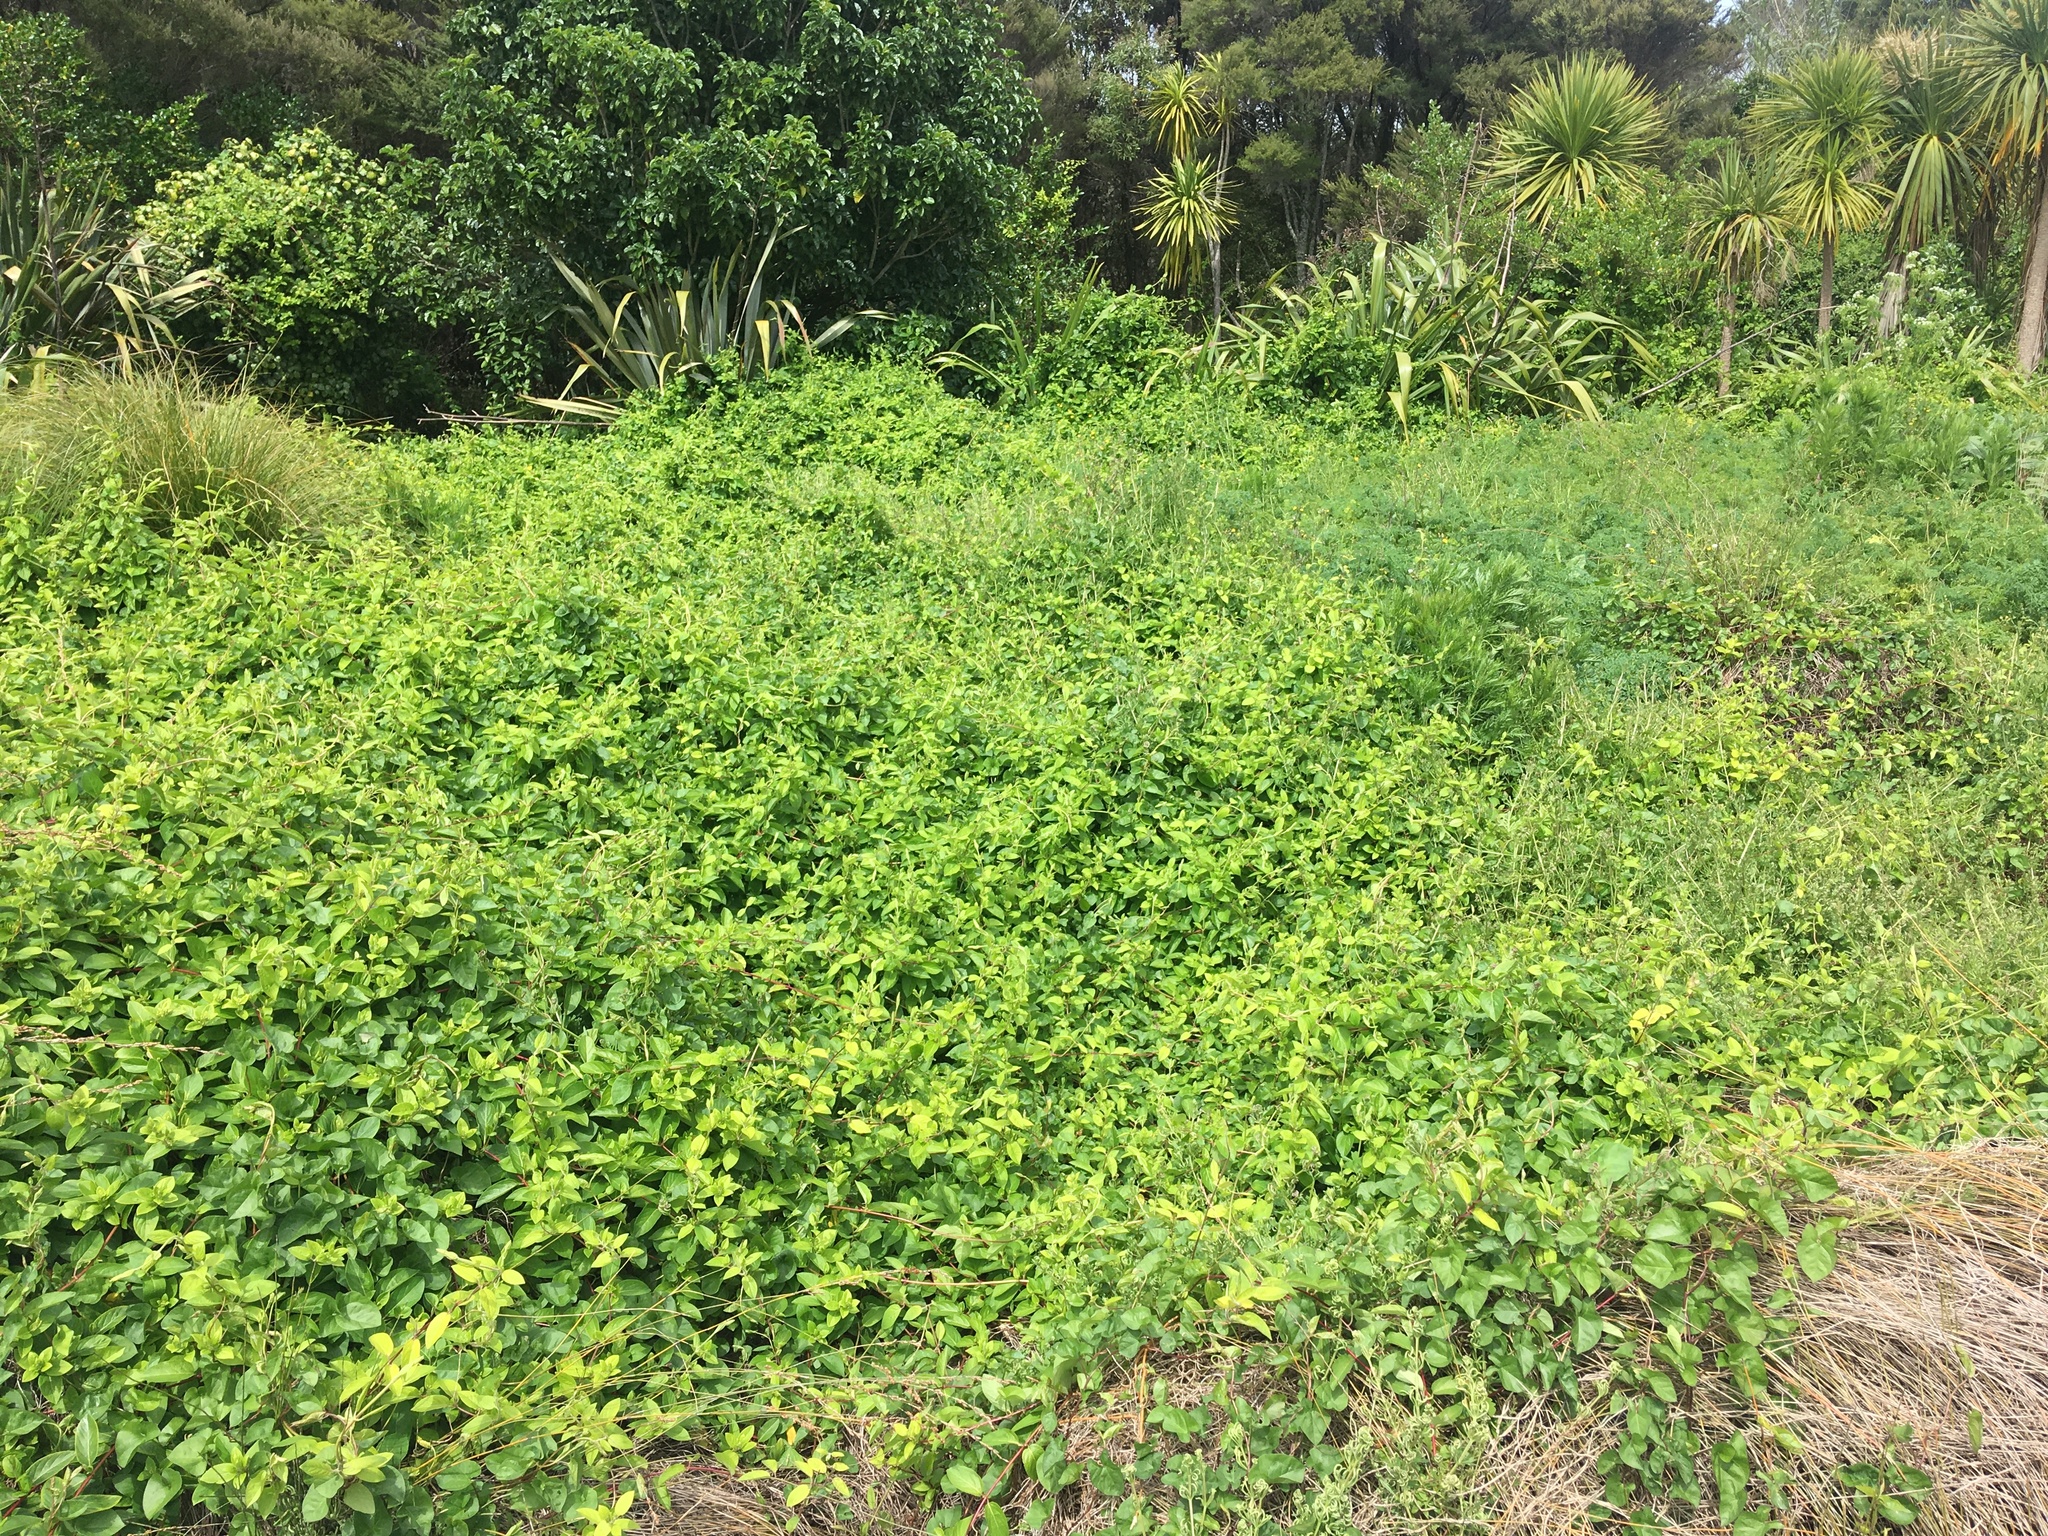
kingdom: Plantae
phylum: Tracheophyta
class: Magnoliopsida
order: Dipsacales
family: Caprifoliaceae
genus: Lonicera
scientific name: Lonicera japonica
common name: Japanese honeysuckle
